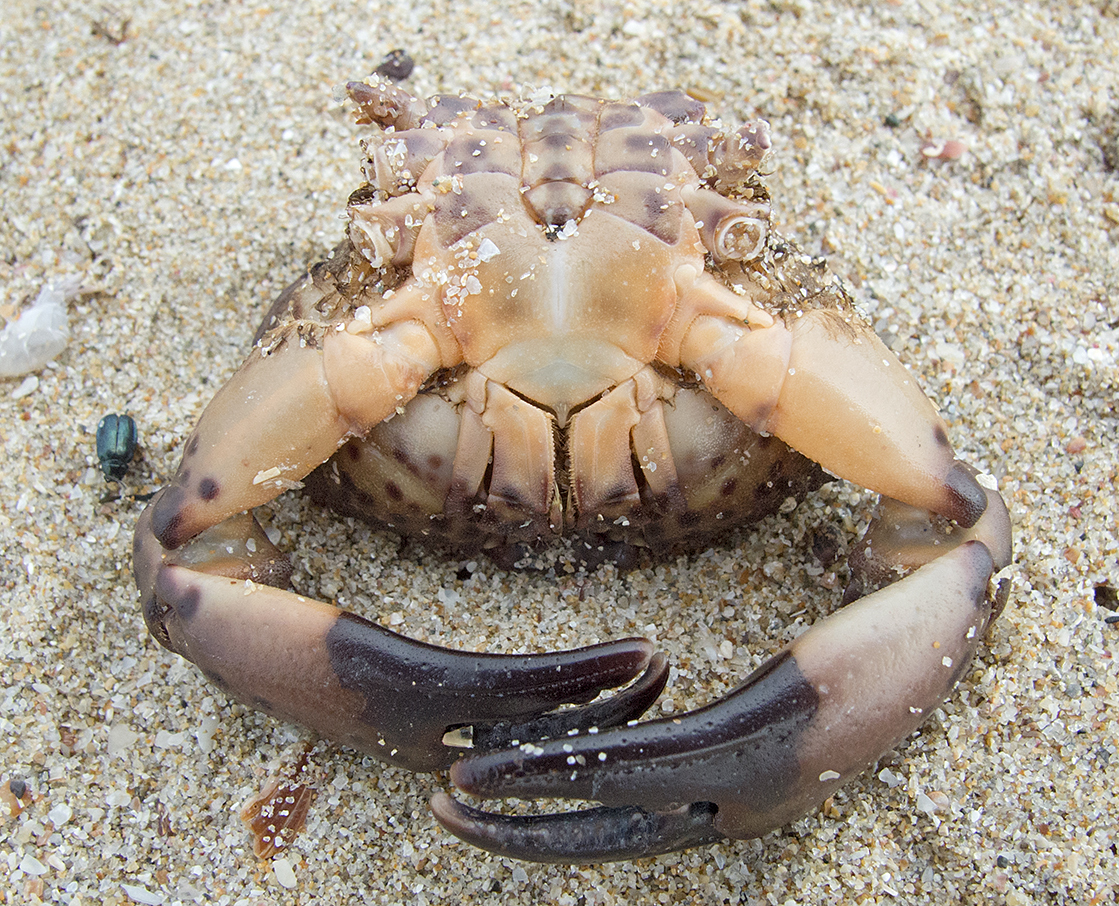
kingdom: Animalia
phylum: Arthropoda
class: Malacostraca
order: Decapoda
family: Xanthidae
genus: Xantho
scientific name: Xantho poressa
